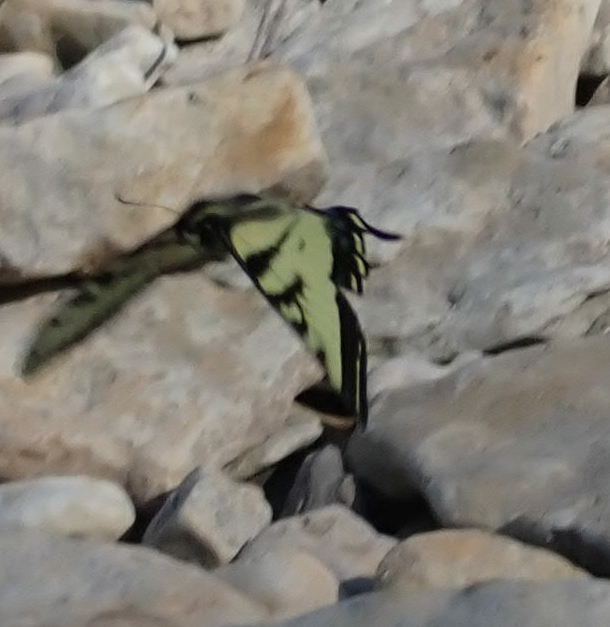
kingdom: Animalia
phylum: Arthropoda
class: Insecta
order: Lepidoptera
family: Papilionidae
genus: Papilio
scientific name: Papilio canadensis
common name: Canadian tiger swallowtail
